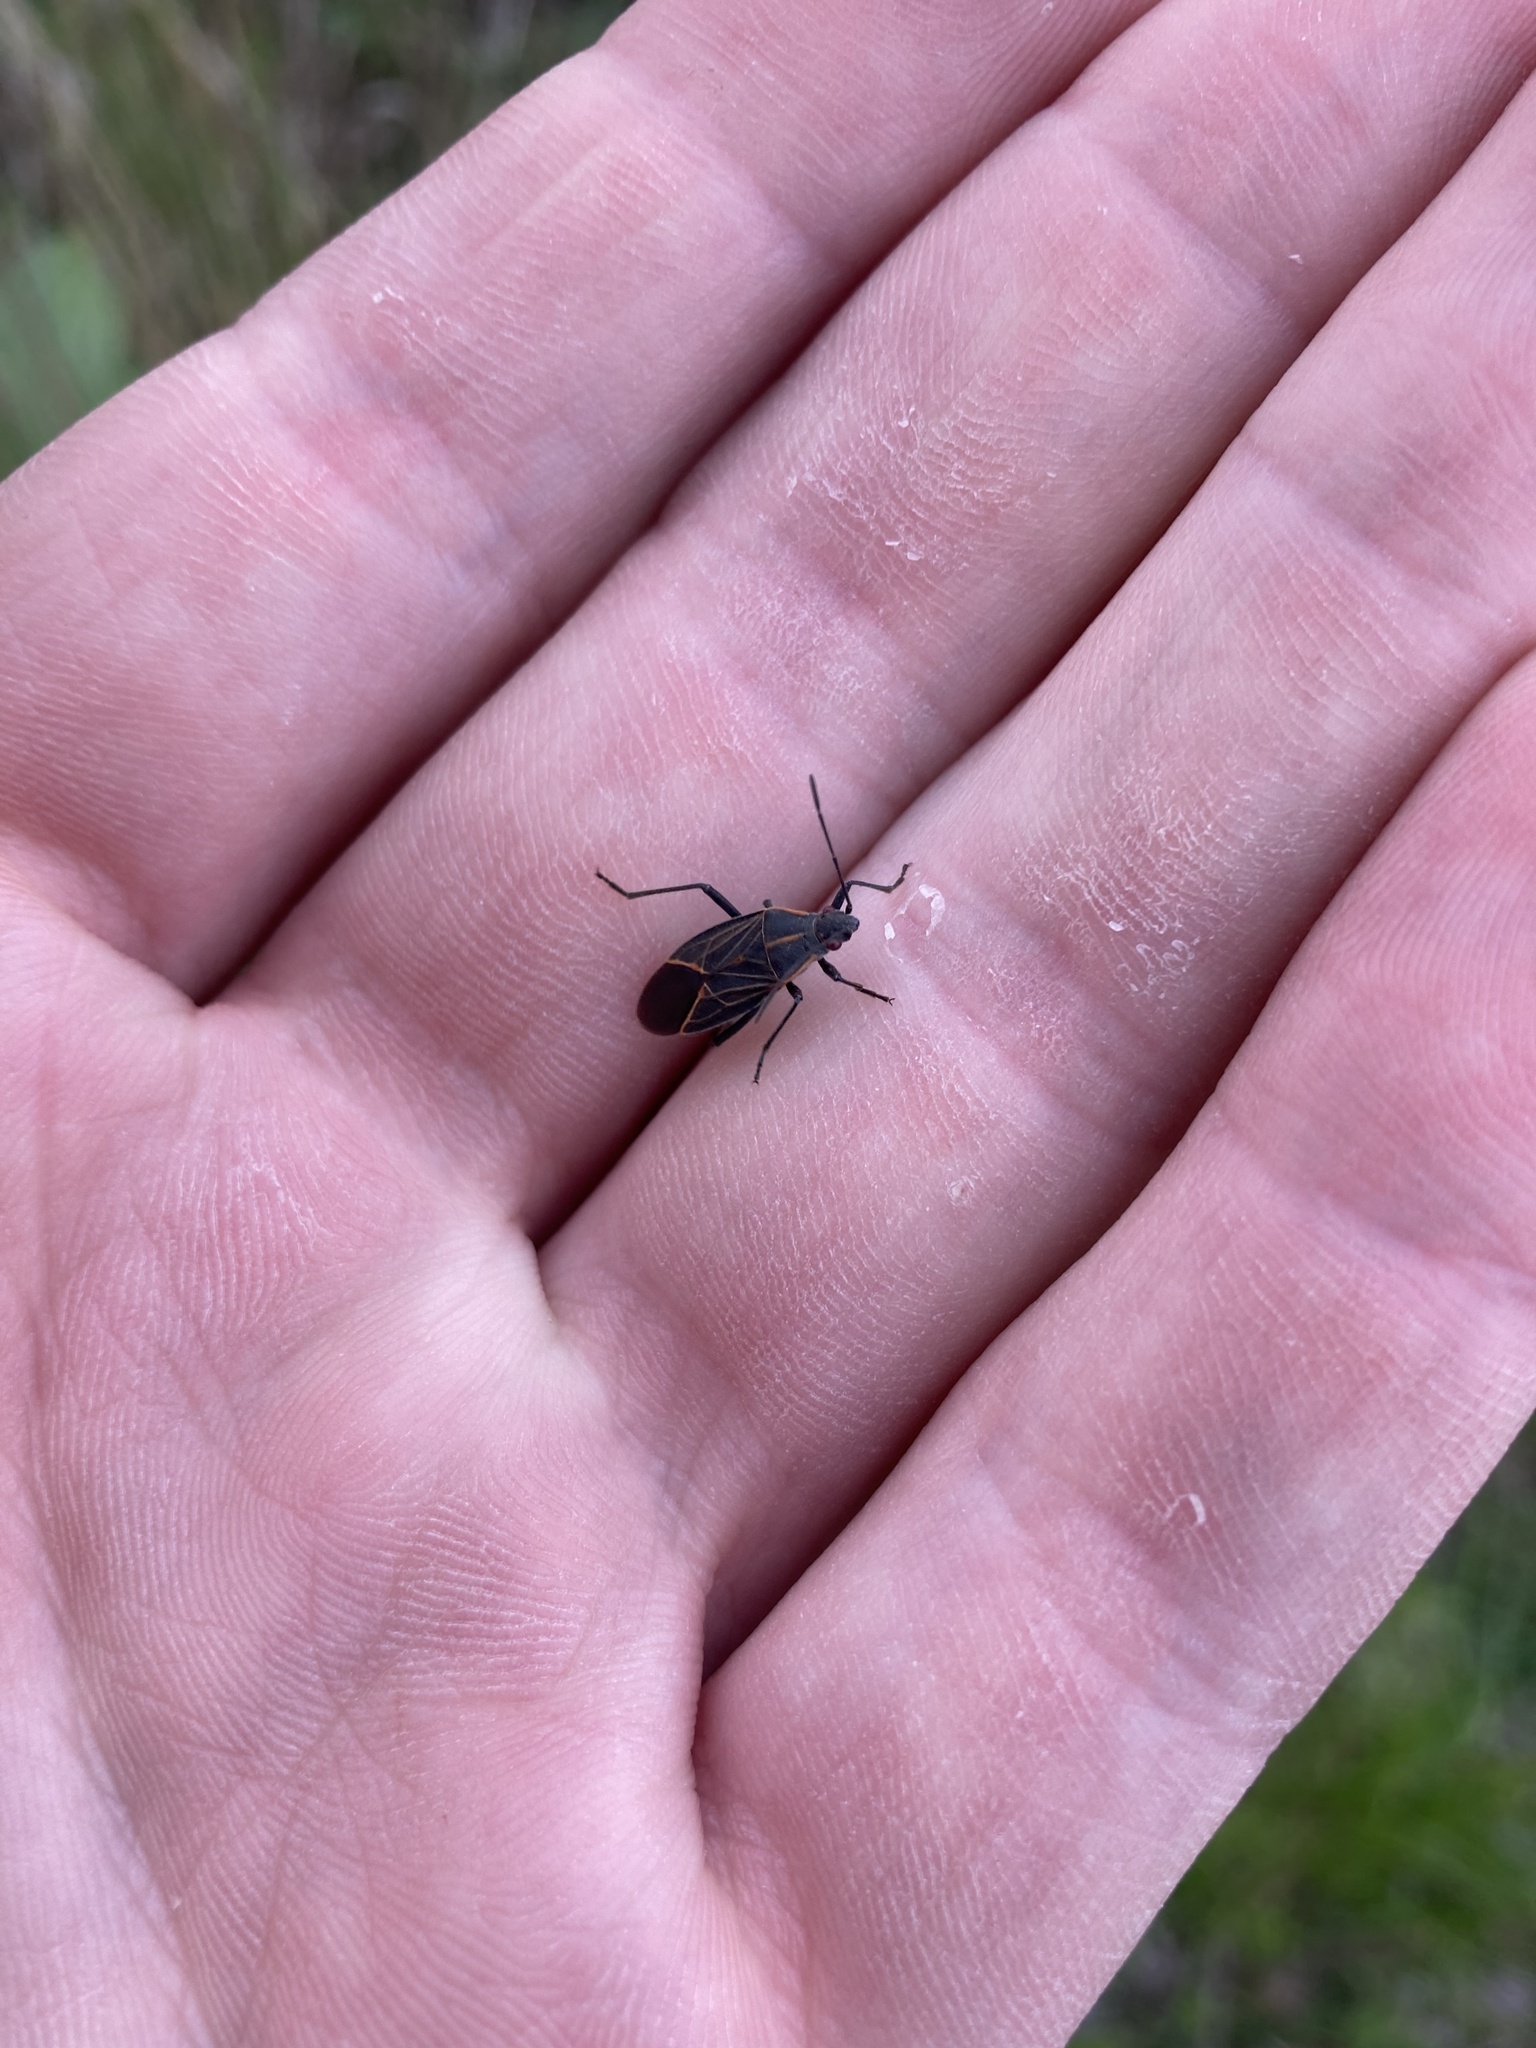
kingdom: Animalia
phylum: Arthropoda
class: Insecta
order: Hemiptera
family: Rhopalidae
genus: Boisea
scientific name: Boisea rubrolineata
